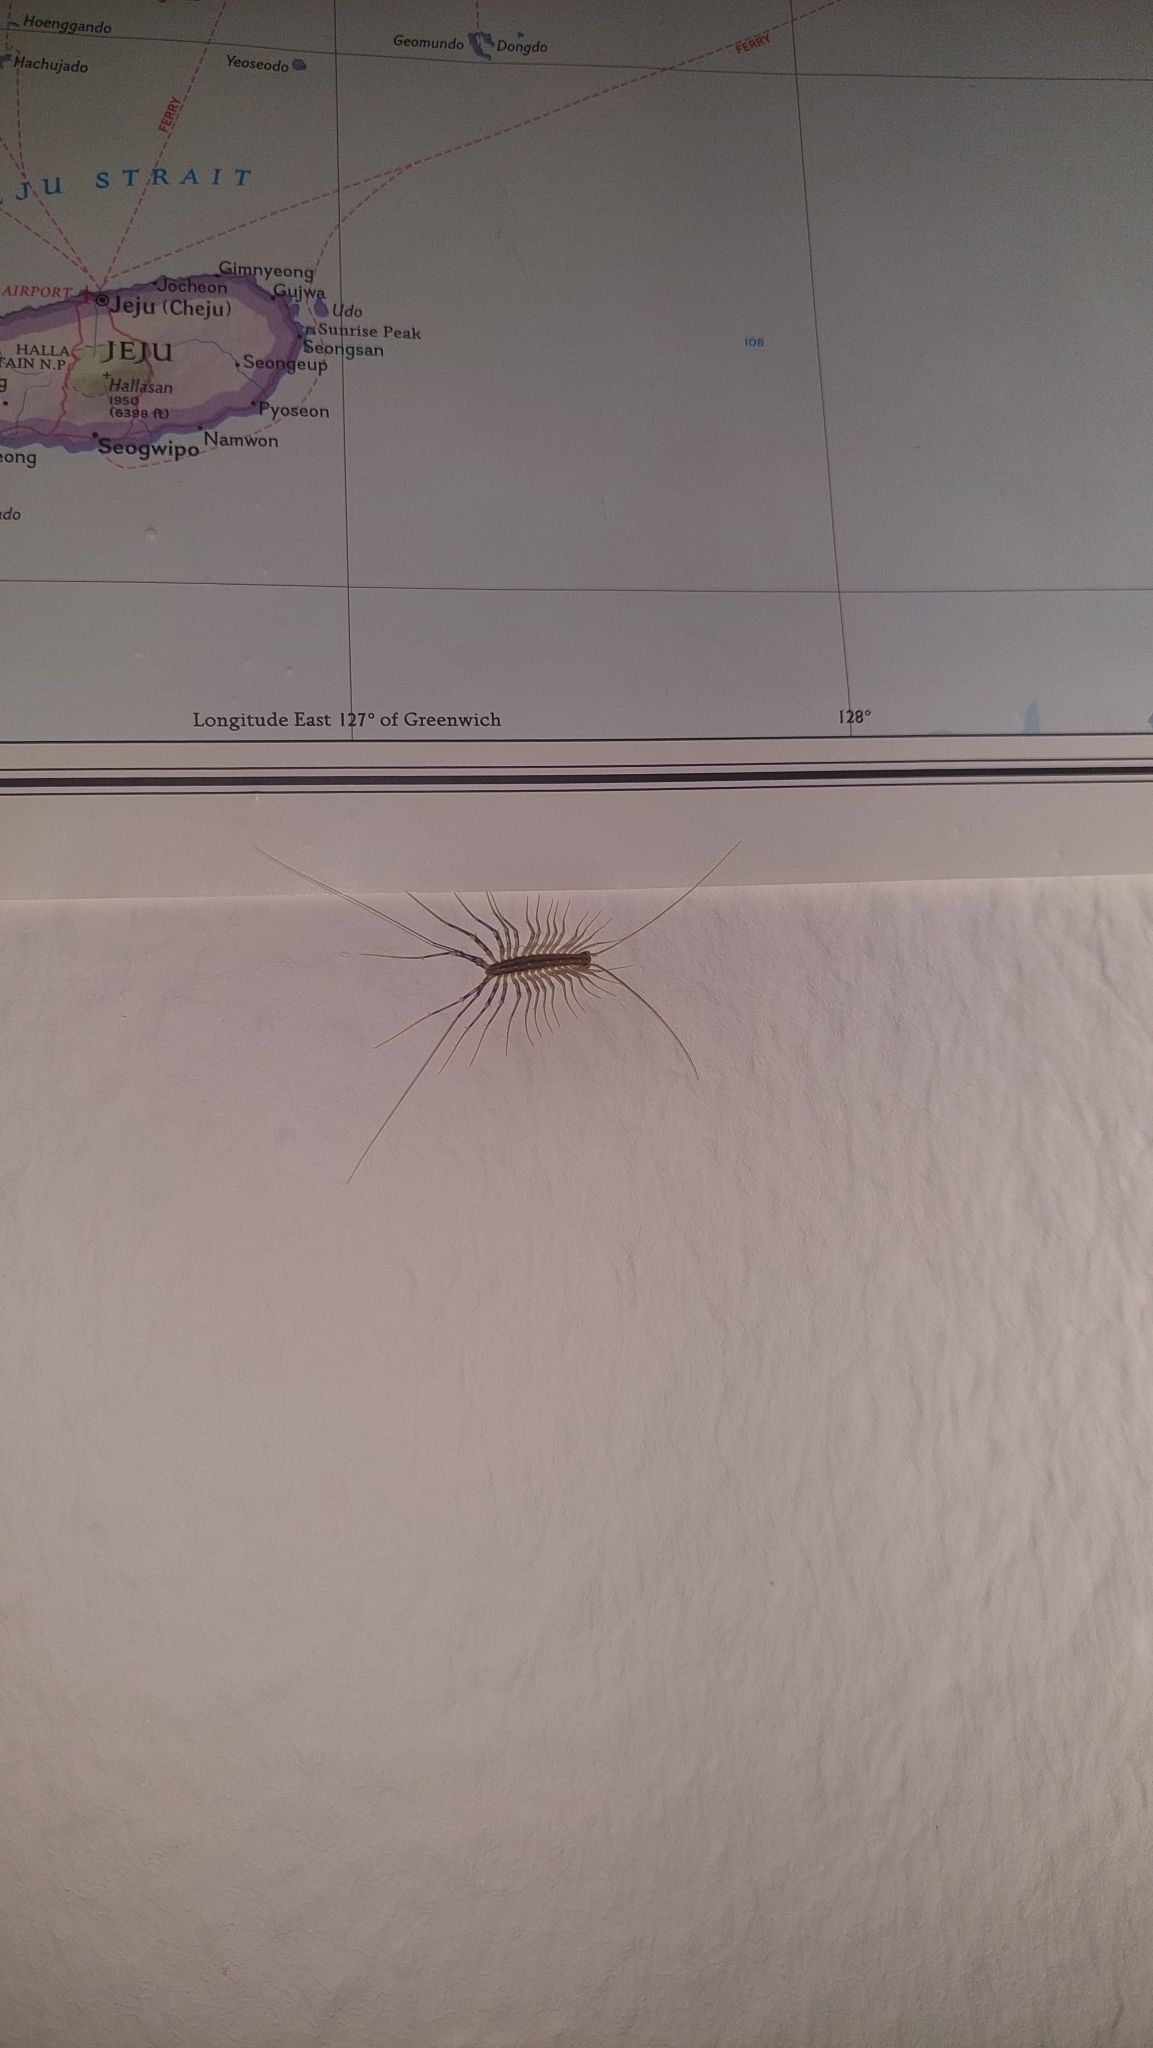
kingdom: Animalia
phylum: Arthropoda
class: Chilopoda
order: Scutigeromorpha
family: Scutigeridae
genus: Scutigera
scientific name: Scutigera coleoptrata
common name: House centipede
